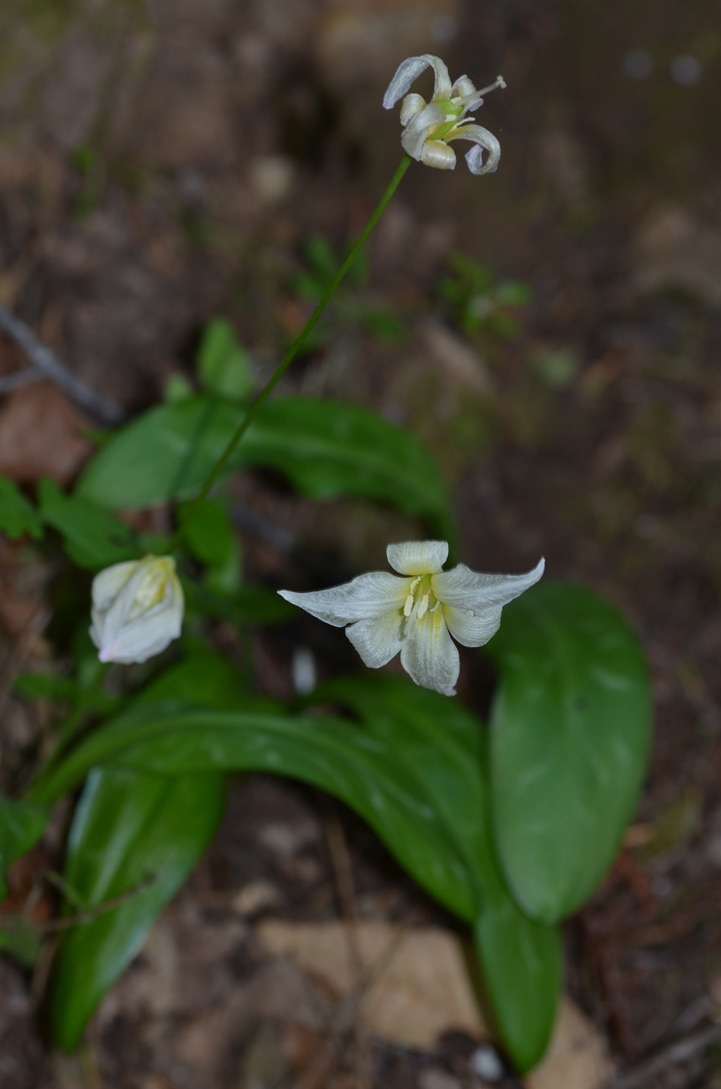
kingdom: Plantae
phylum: Tracheophyta
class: Liliopsida
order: Liliales
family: Liliaceae
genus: Erythronium
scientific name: Erythronium californicum
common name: Fawn-lily
